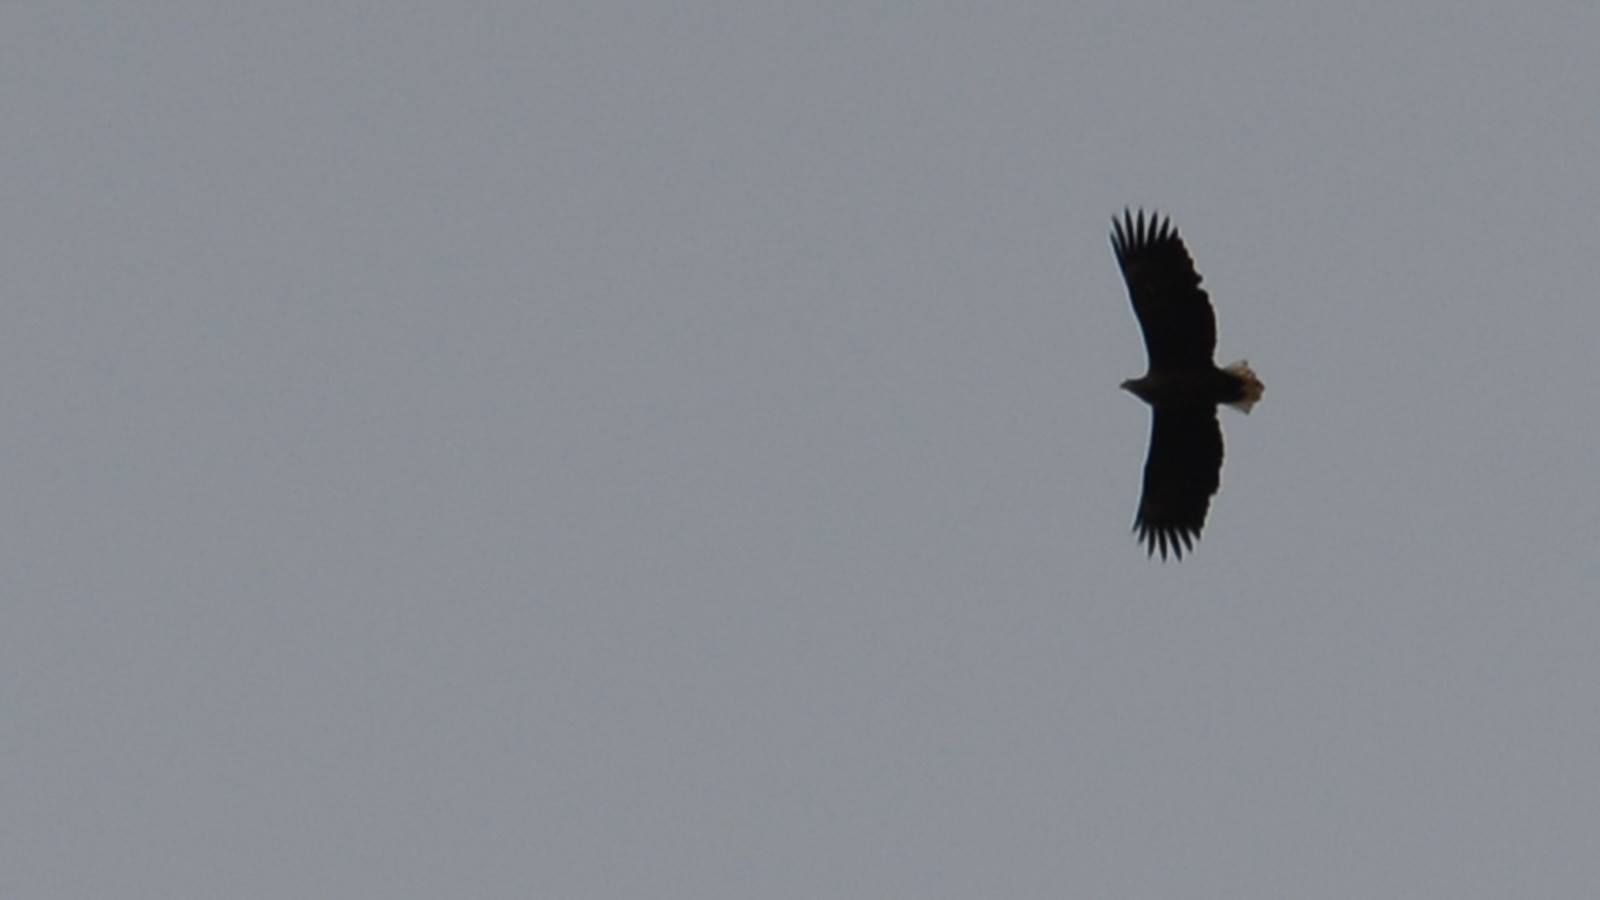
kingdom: Animalia
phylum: Chordata
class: Aves
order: Accipitriformes
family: Accipitridae
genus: Haliaeetus
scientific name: Haliaeetus albicilla
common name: White-tailed eagle
